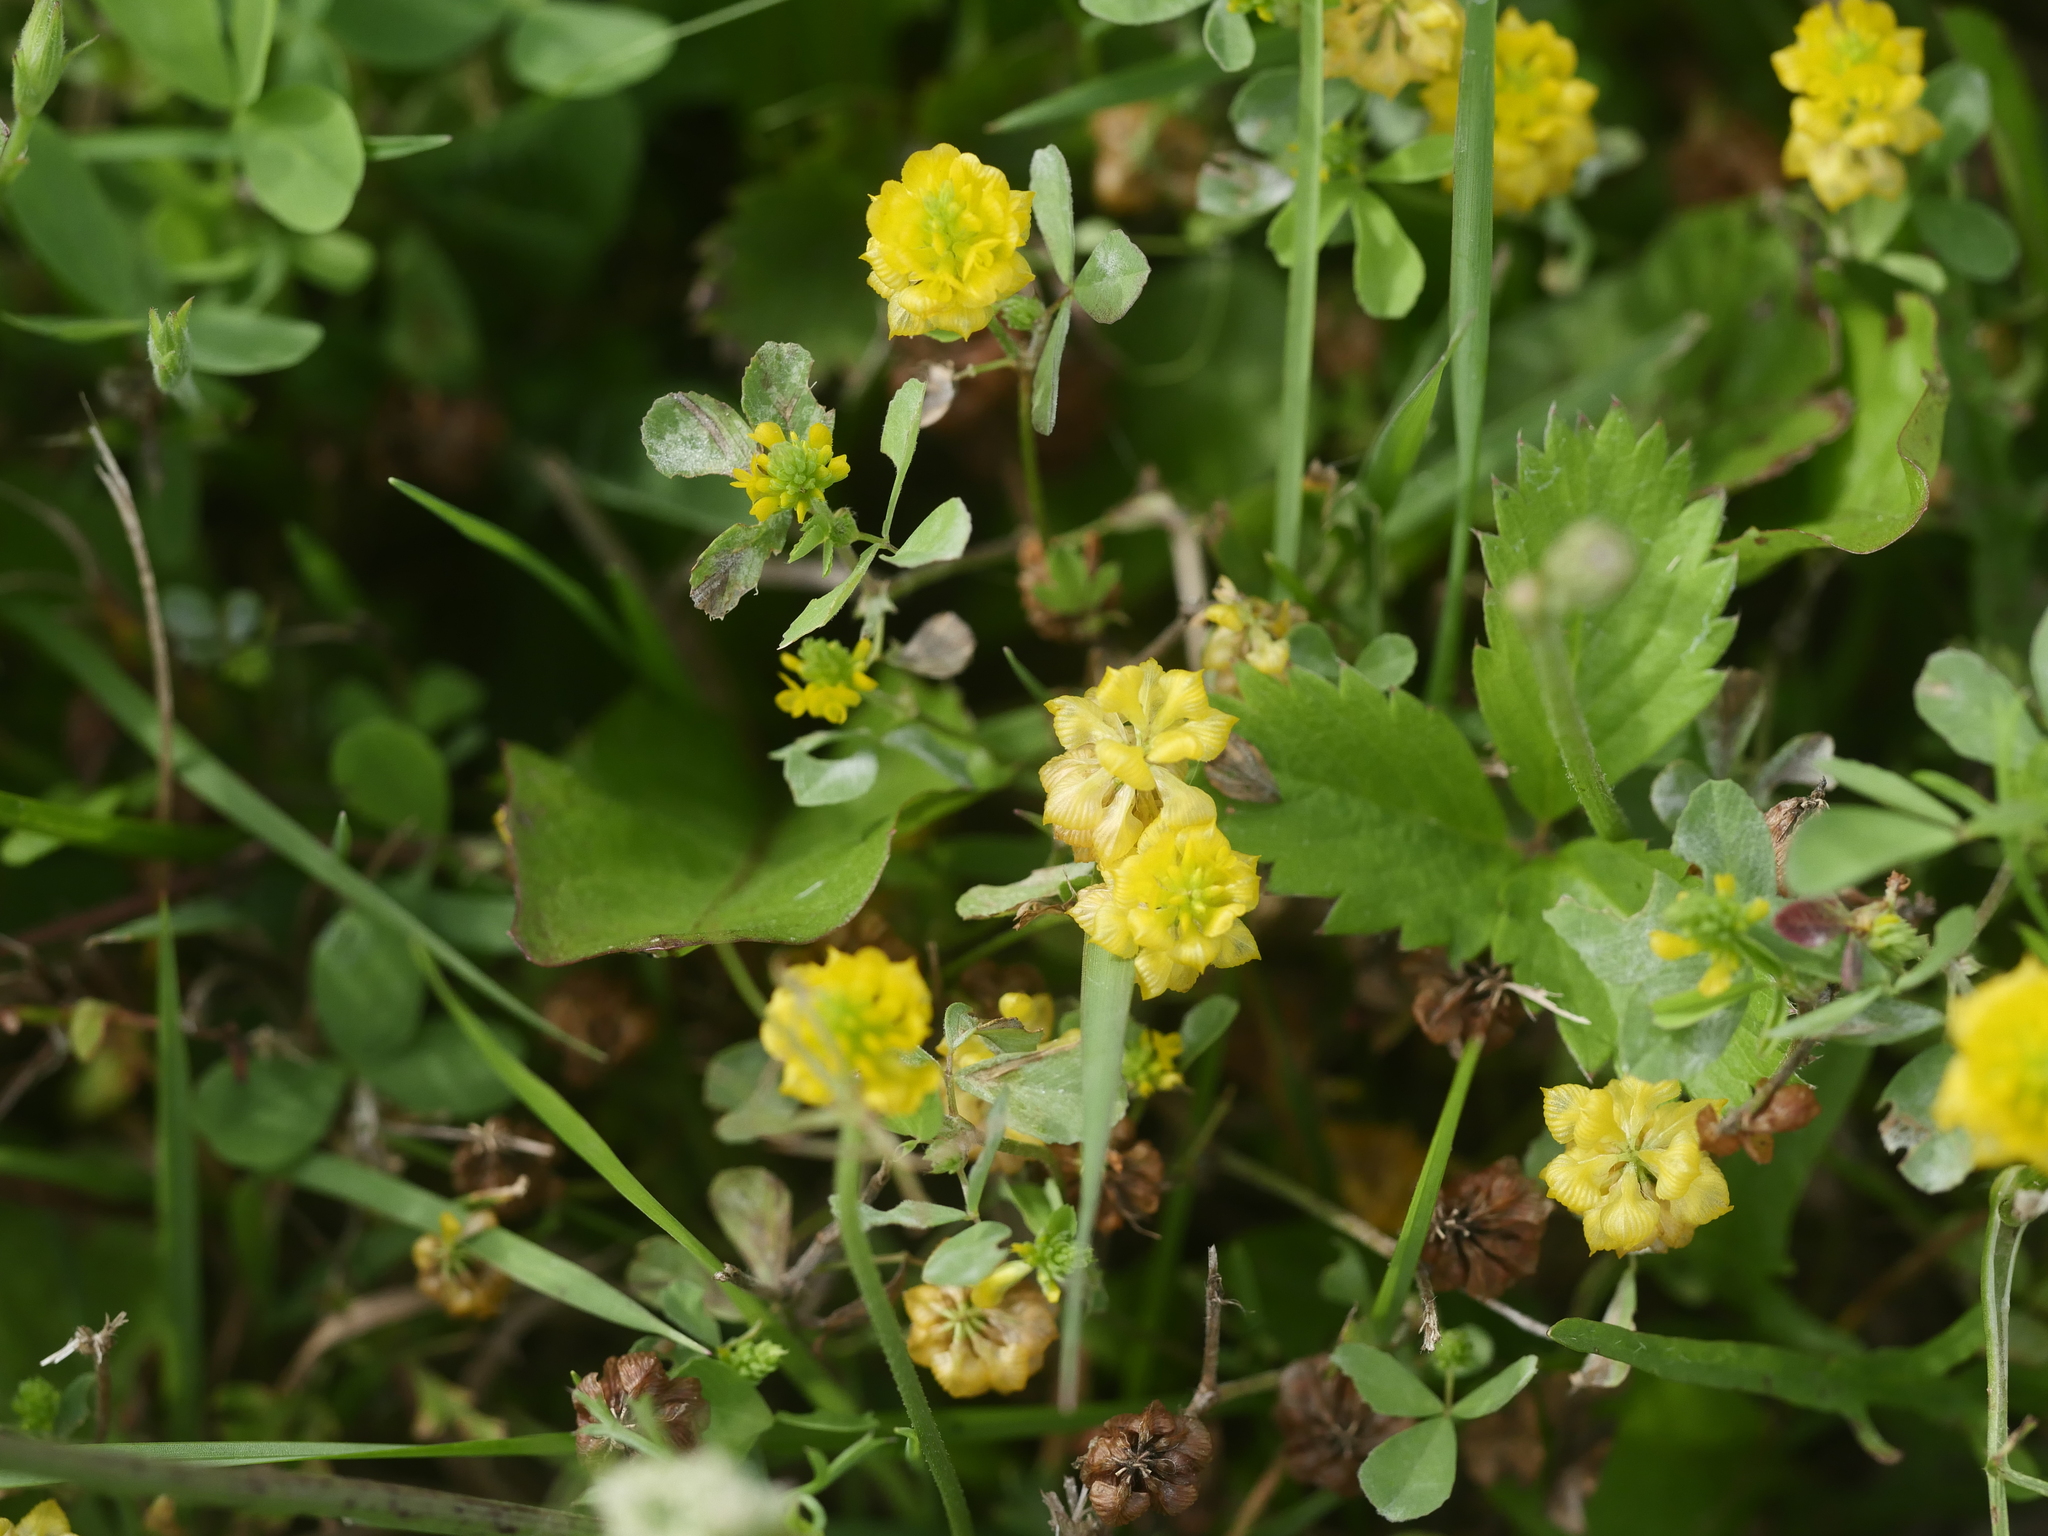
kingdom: Plantae
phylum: Tracheophyta
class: Magnoliopsida
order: Fabales
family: Fabaceae
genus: Trifolium
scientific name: Trifolium campestre
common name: Field clover
